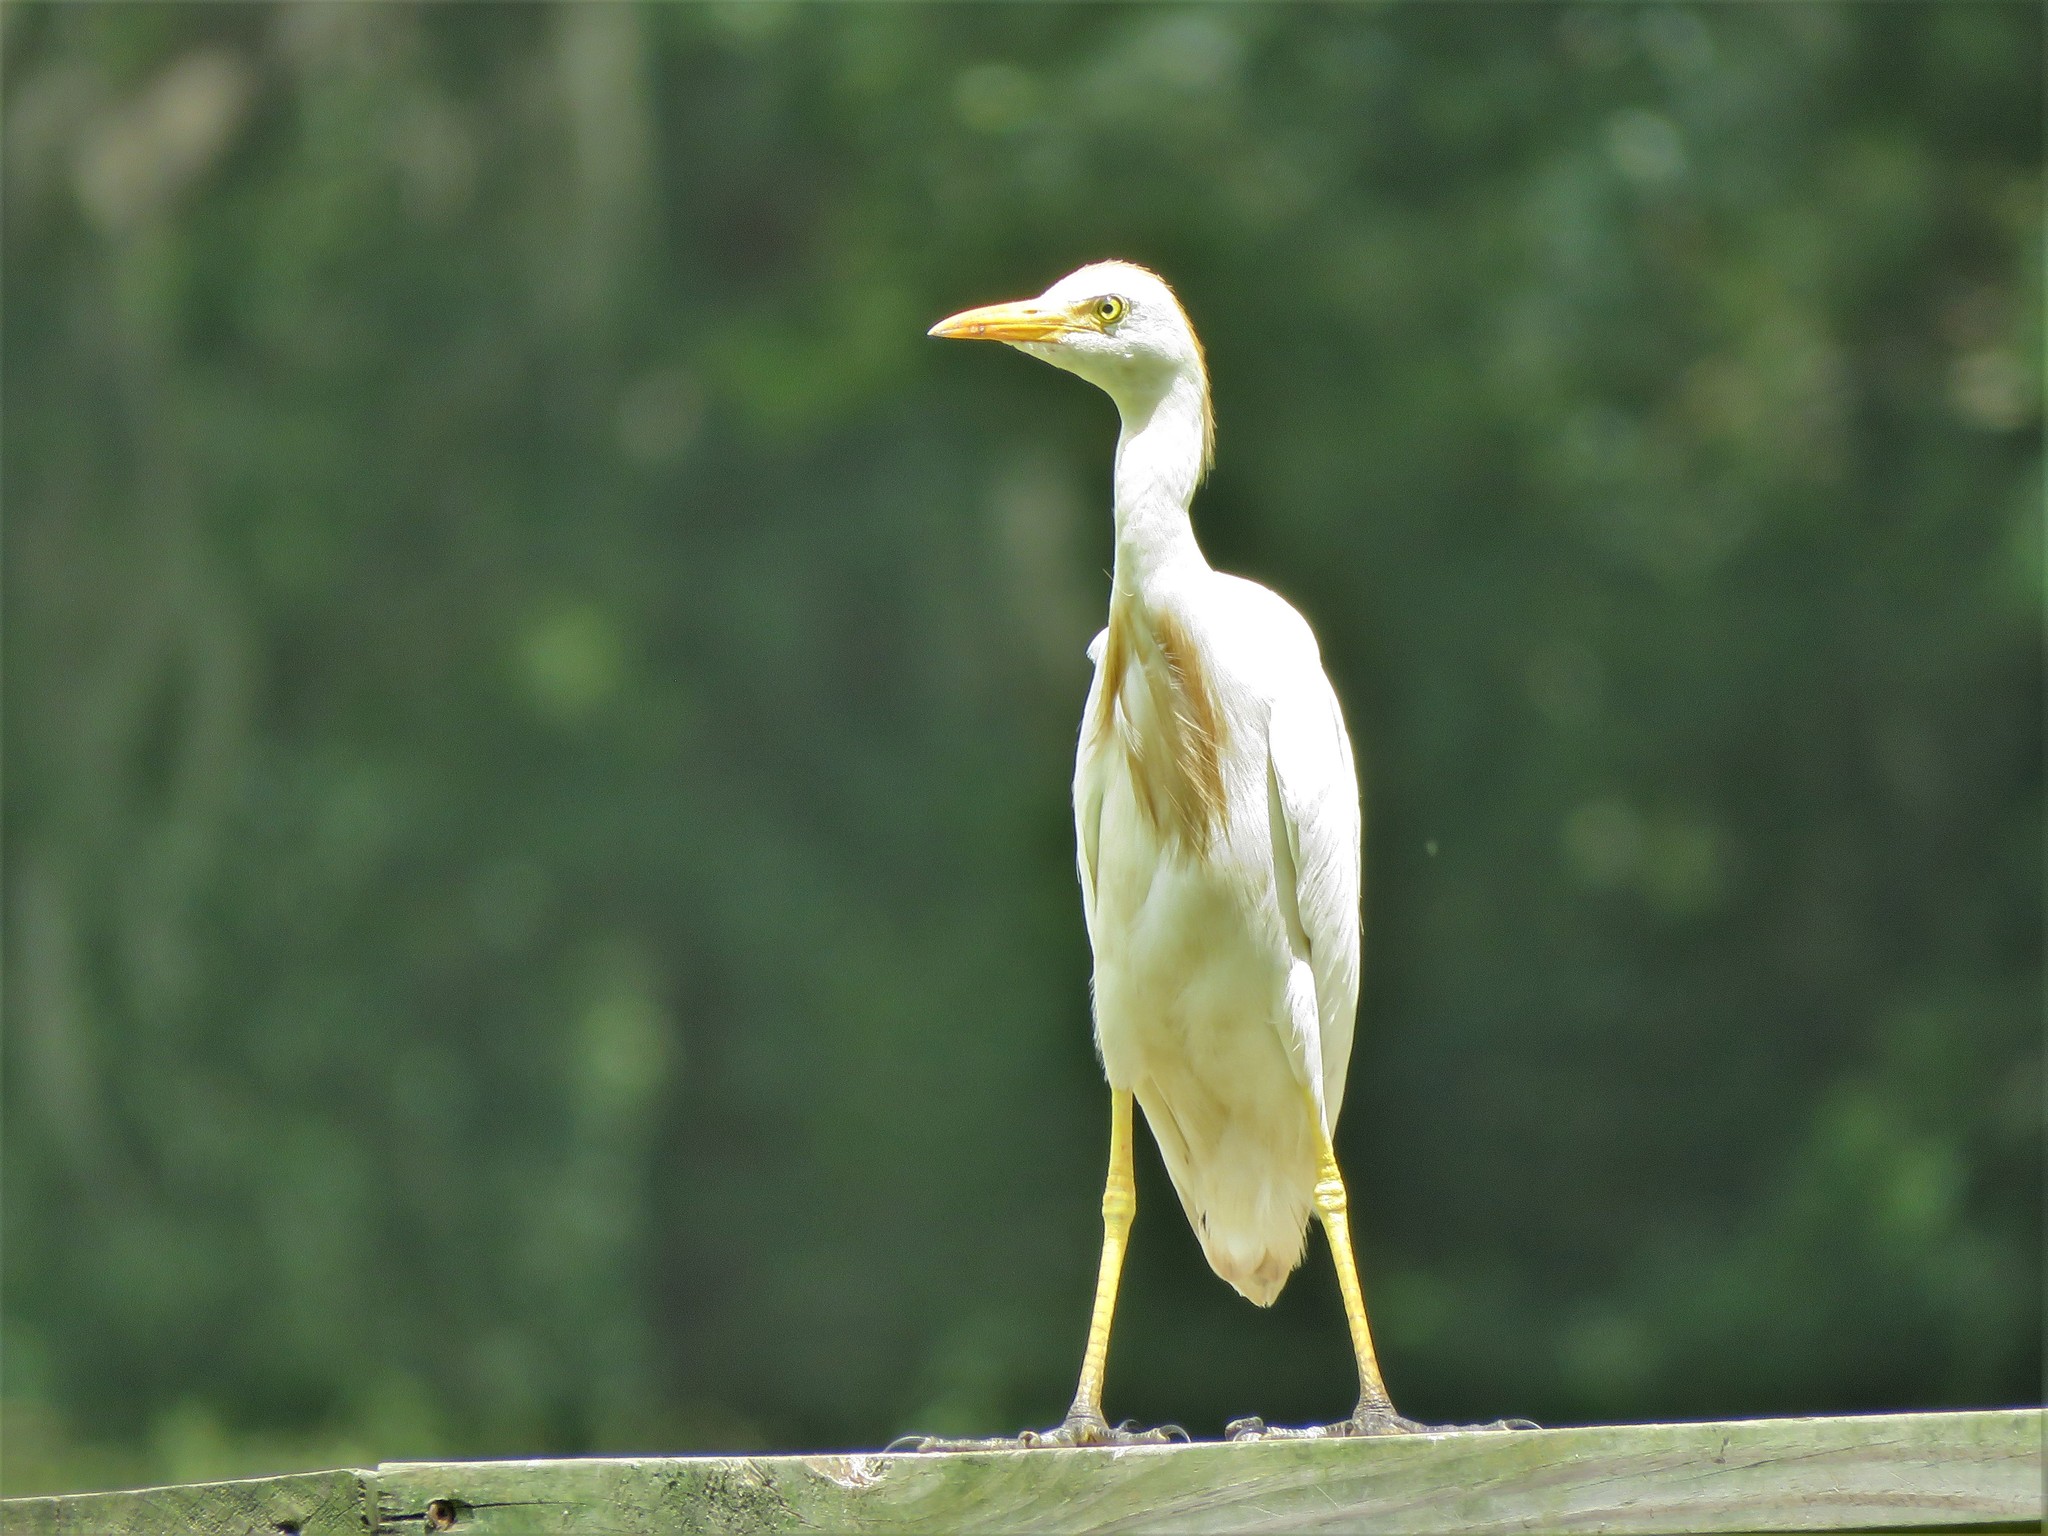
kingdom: Animalia
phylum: Chordata
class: Aves
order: Pelecaniformes
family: Ardeidae
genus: Bubulcus
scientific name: Bubulcus ibis
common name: Cattle egret
